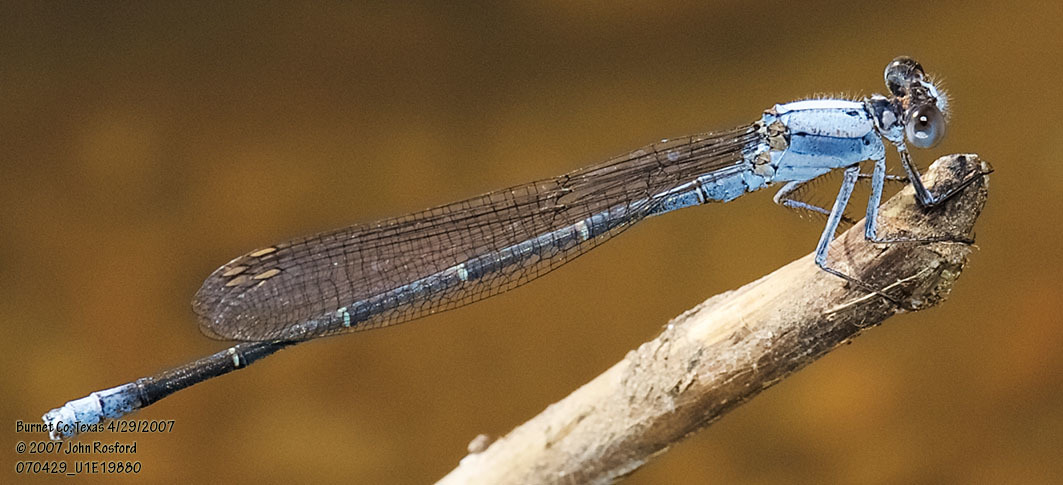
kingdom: Animalia
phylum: Arthropoda
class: Insecta
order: Odonata
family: Coenagrionidae
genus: Argia
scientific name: Argia moesta
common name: Powdered dancer
